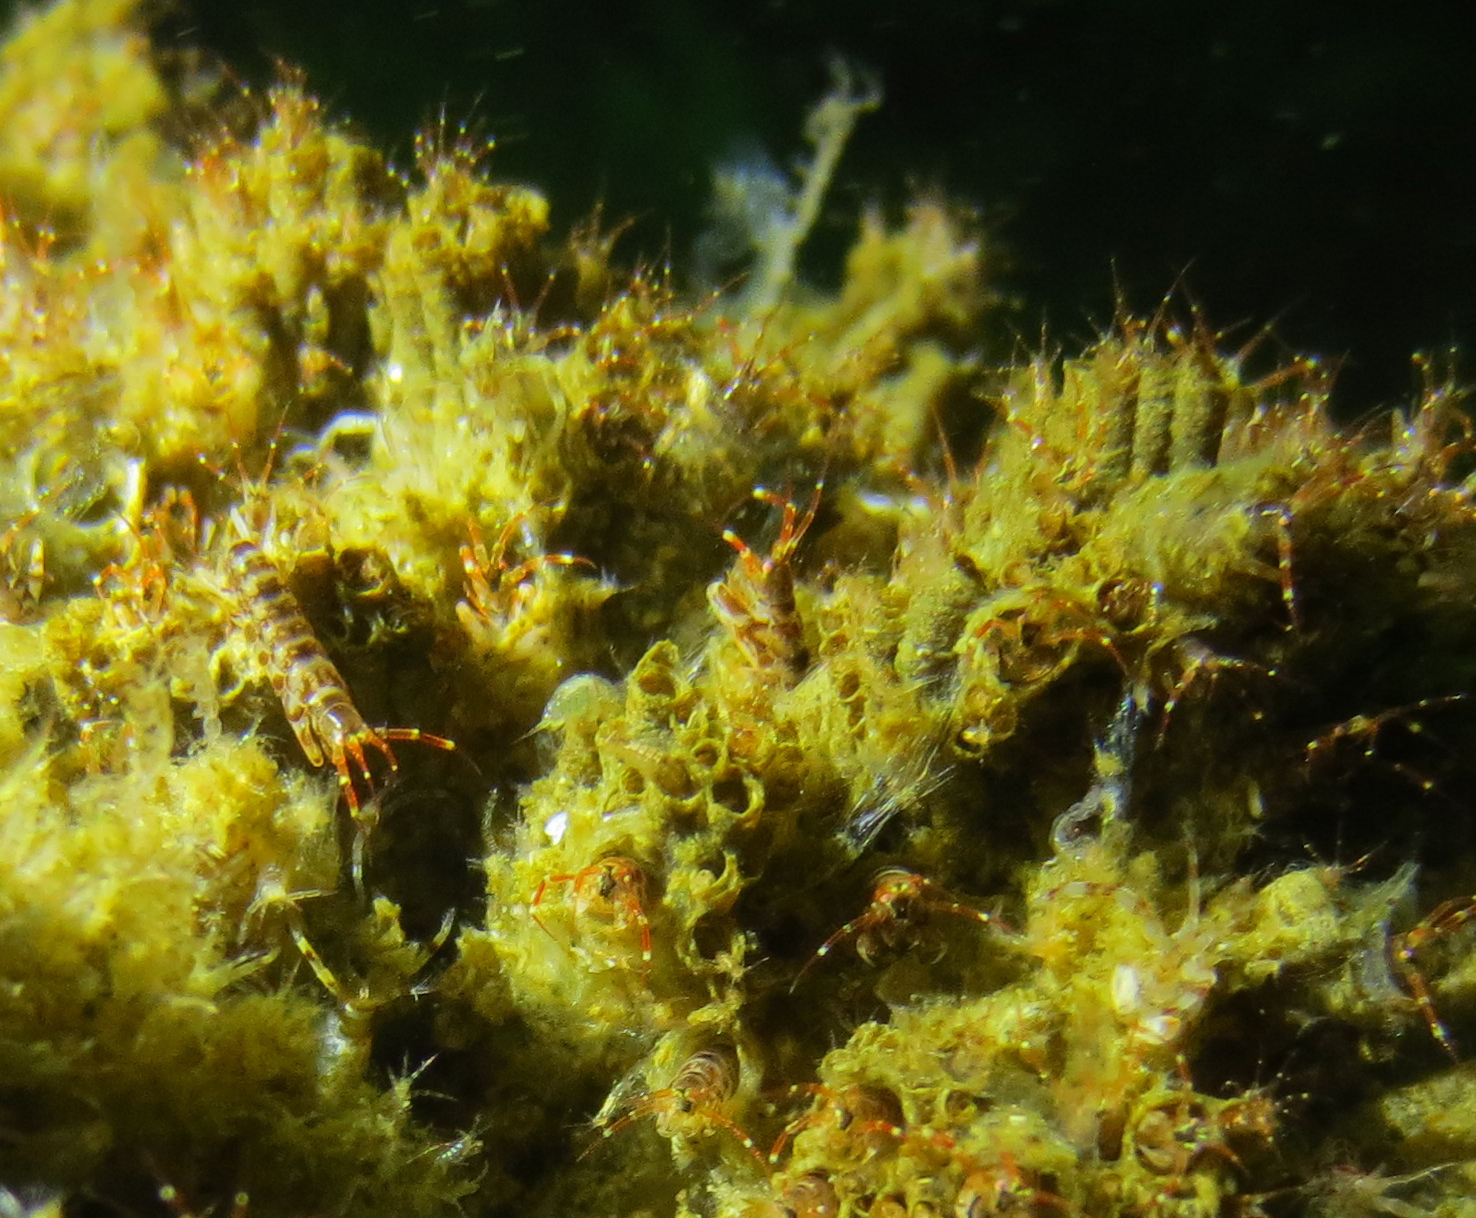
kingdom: Animalia
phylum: Arthropoda
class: Malacostraca
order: Amphipoda
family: Ischyroceridae
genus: Ericthonius
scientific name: Ericthonius rubricornis
